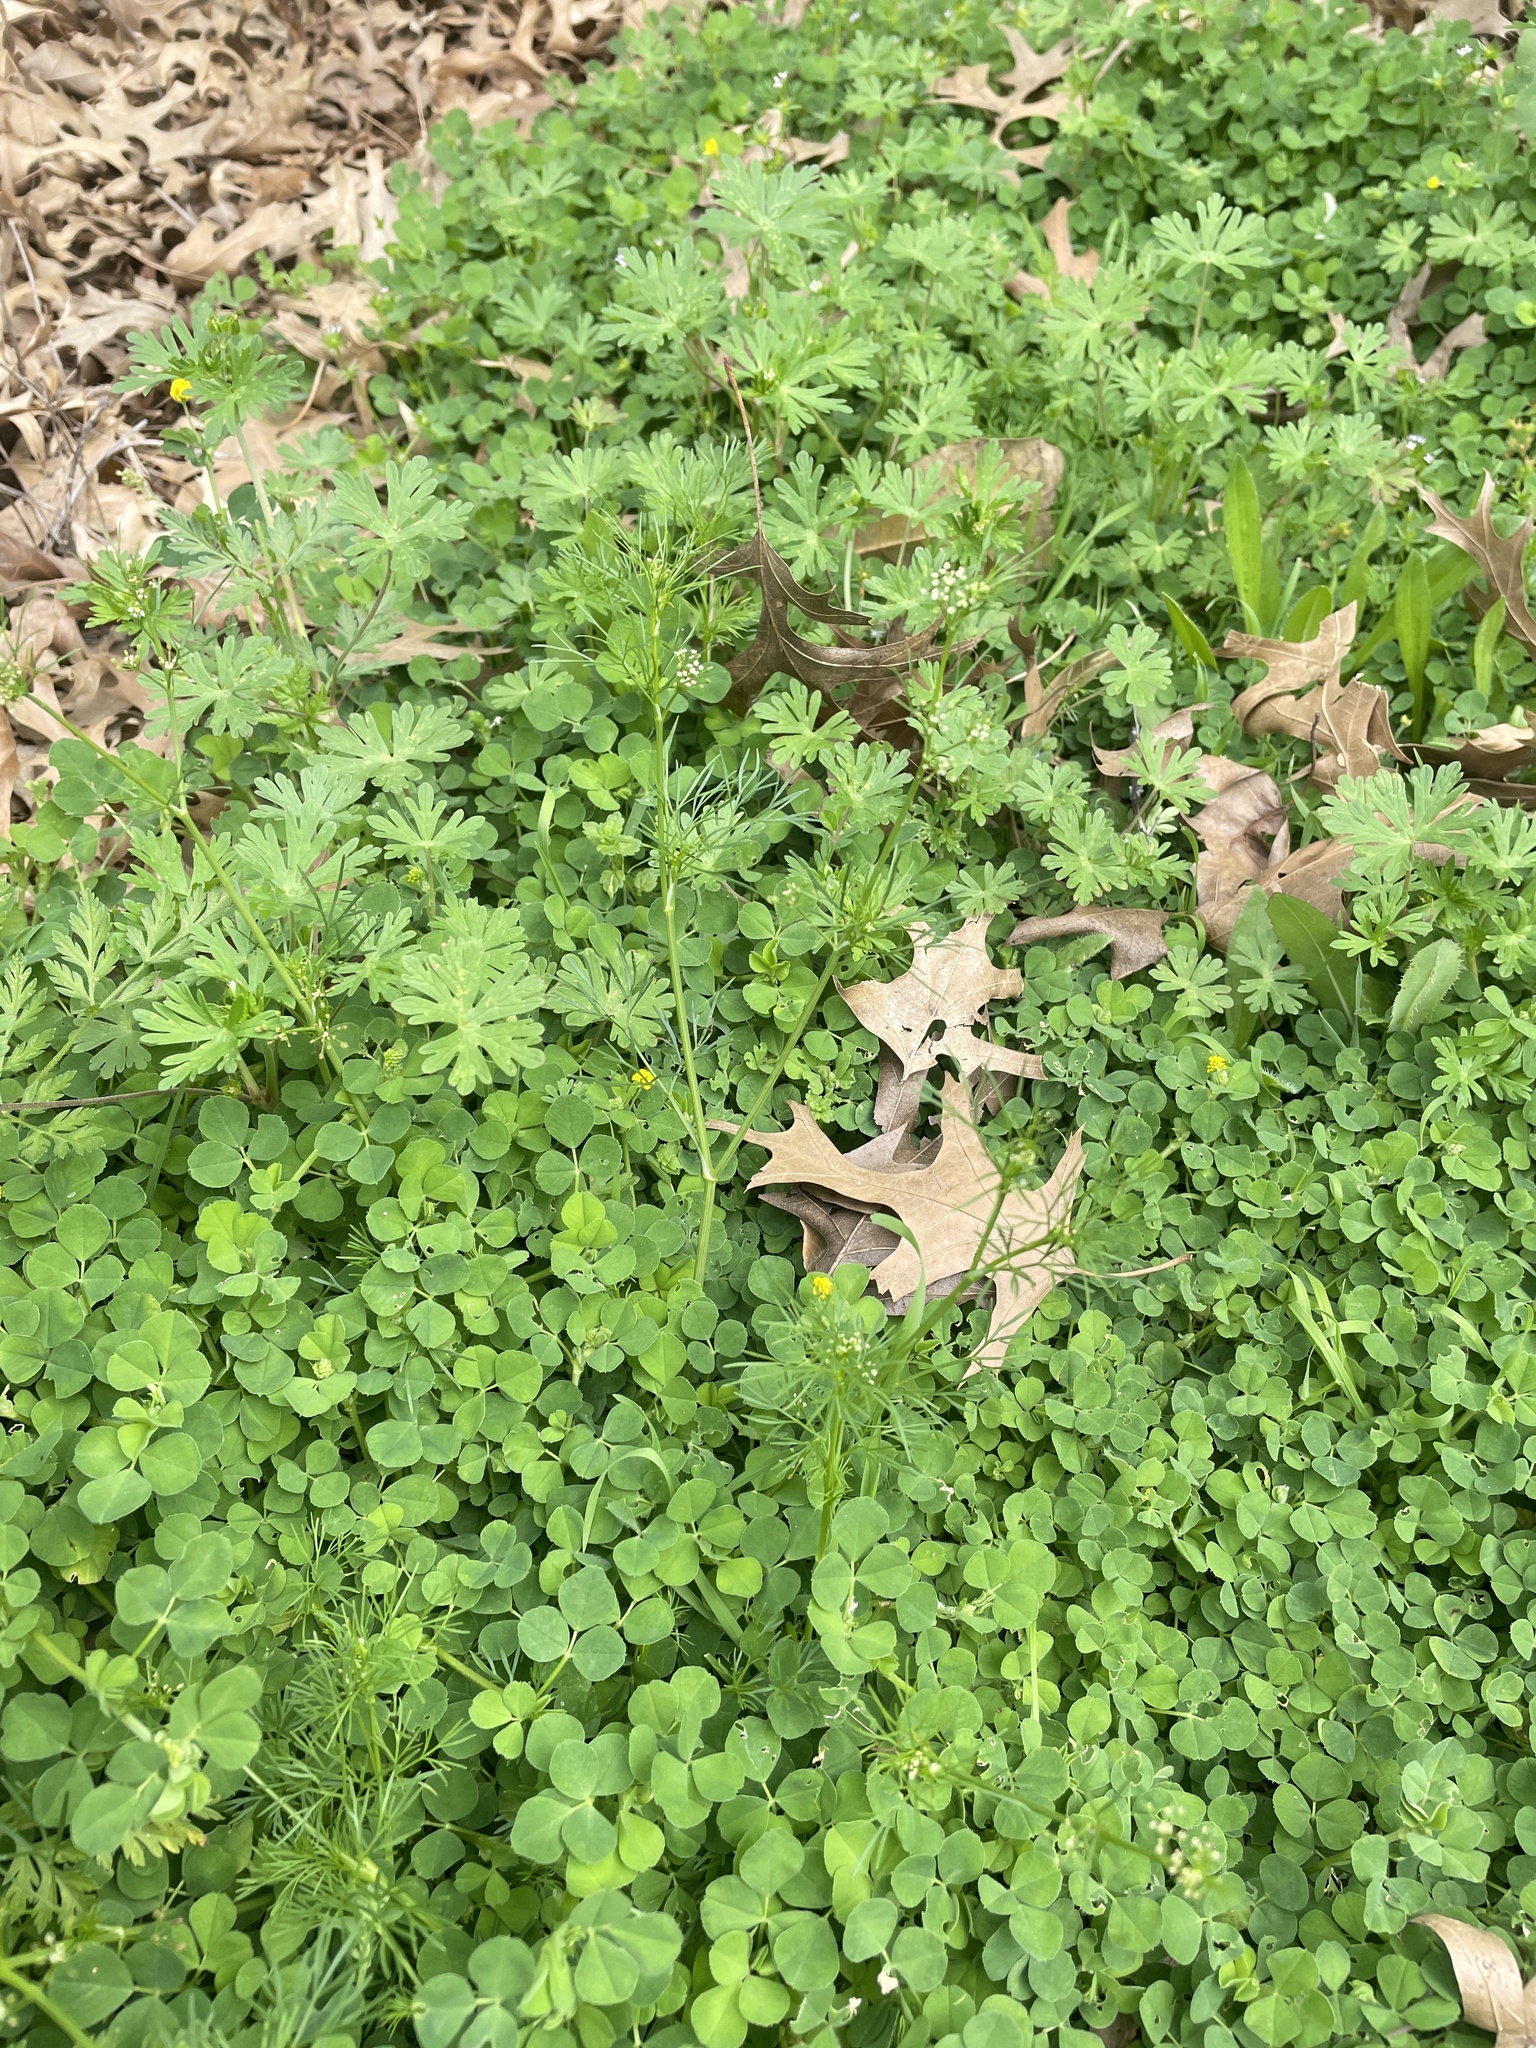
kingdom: Plantae
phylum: Tracheophyta
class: Magnoliopsida
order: Apiales
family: Apiaceae
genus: Cyclospermum
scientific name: Cyclospermum leptophyllum
